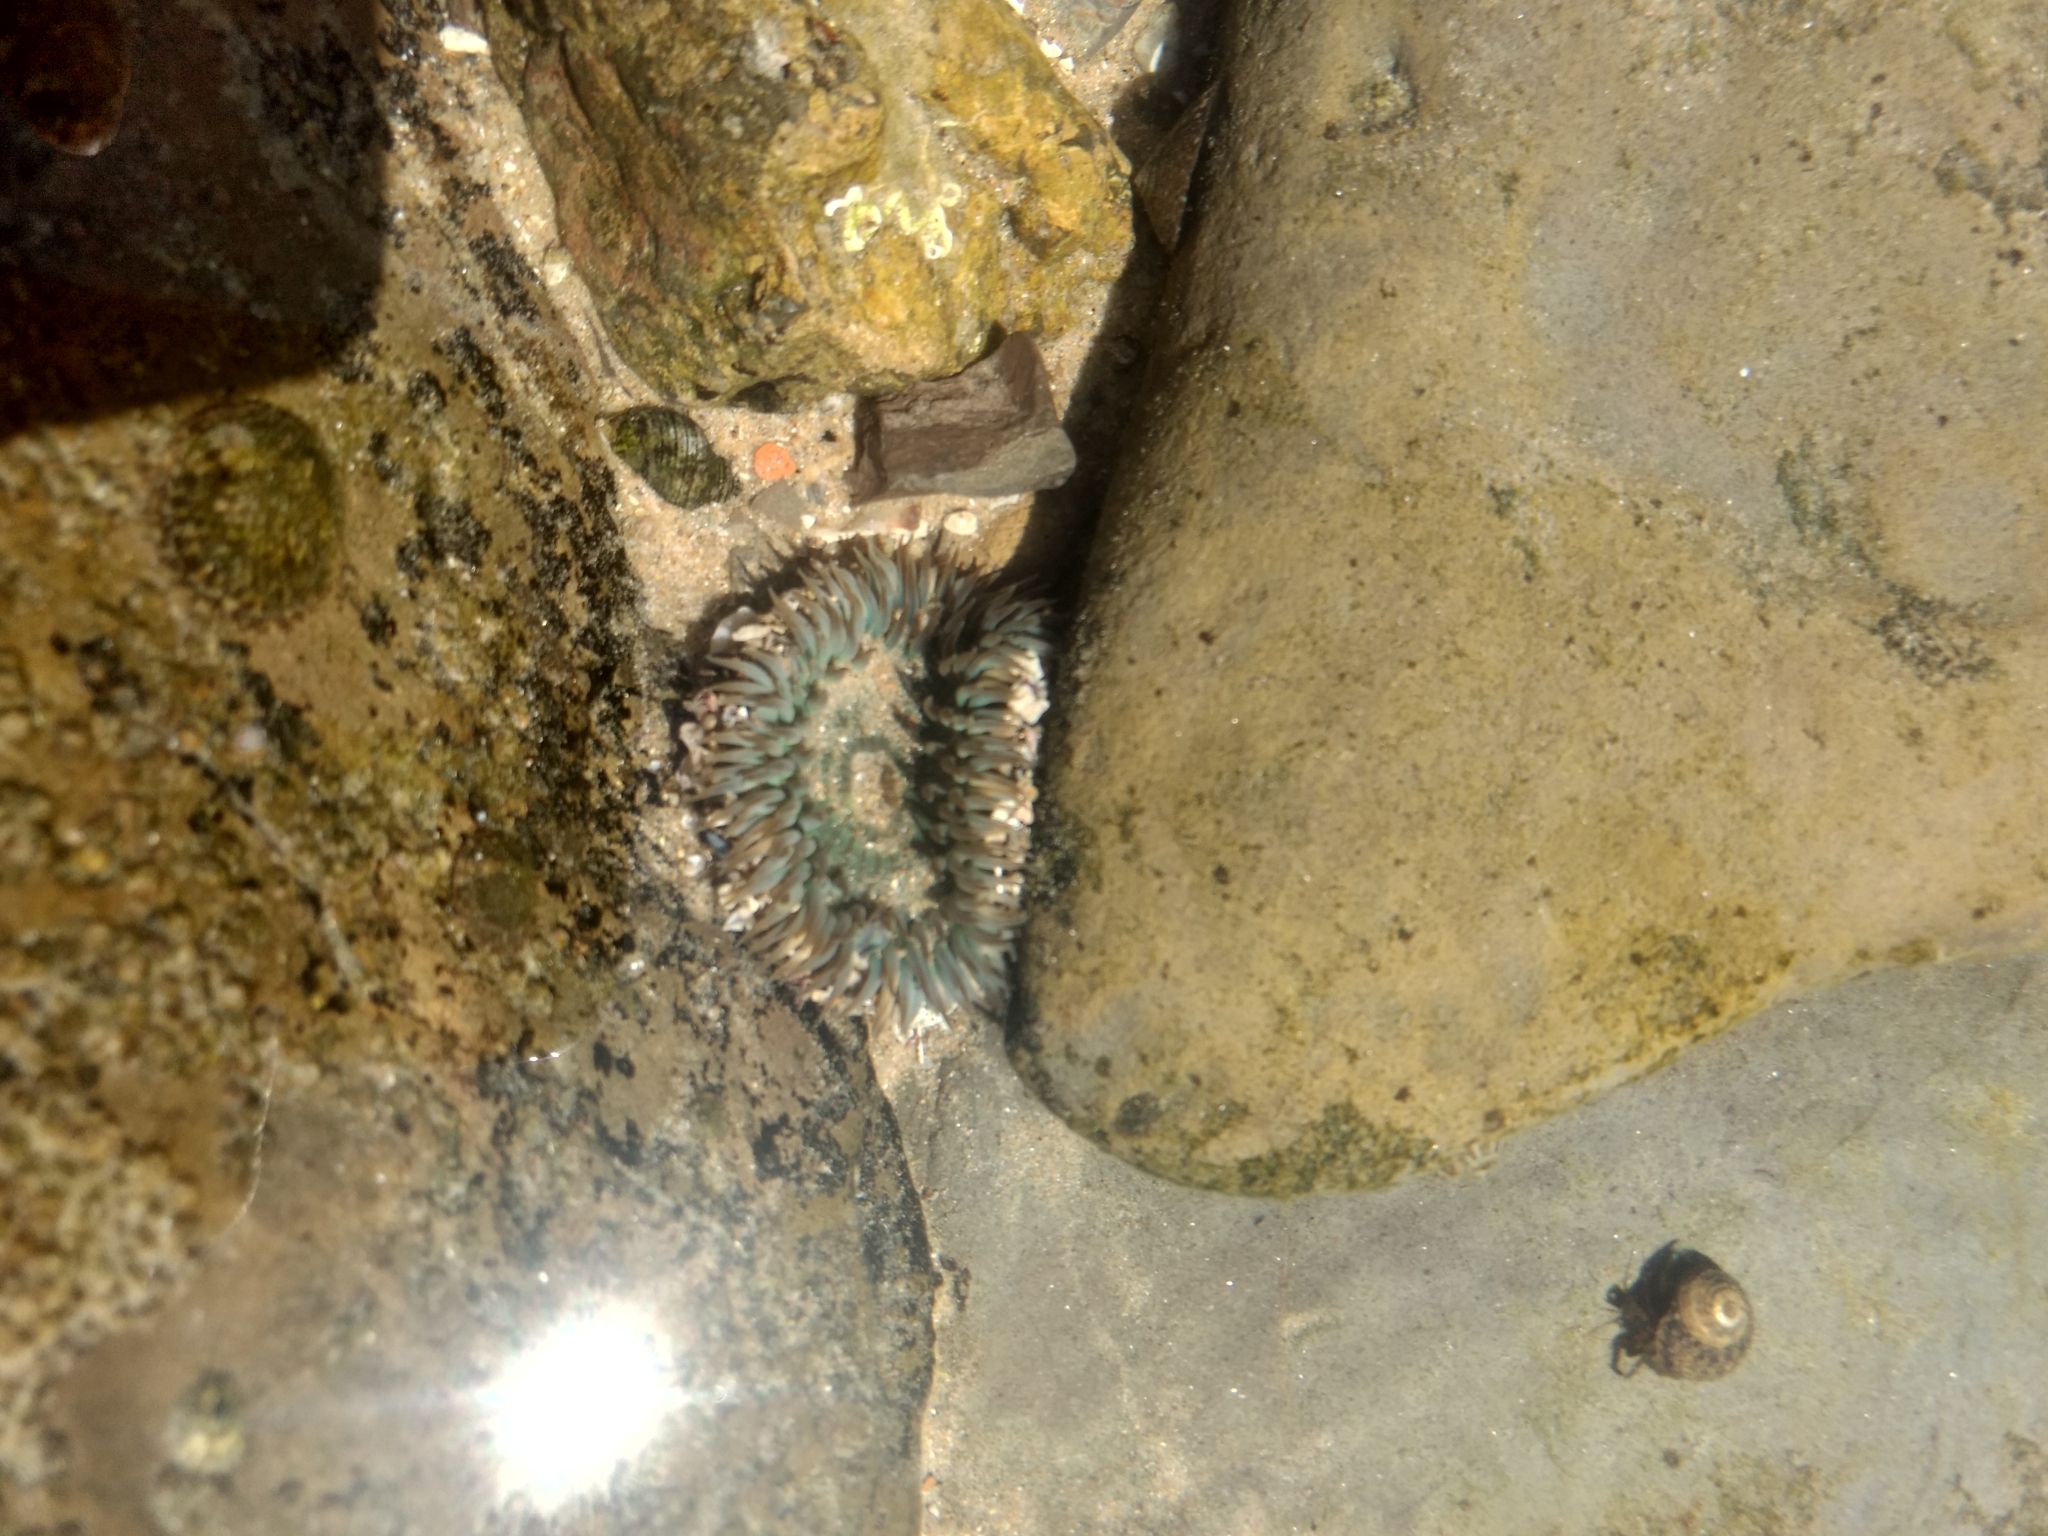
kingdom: Animalia
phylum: Cnidaria
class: Anthozoa
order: Actiniaria
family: Actiniidae
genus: Anthopleura
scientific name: Anthopleura sola
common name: Sun anemone
